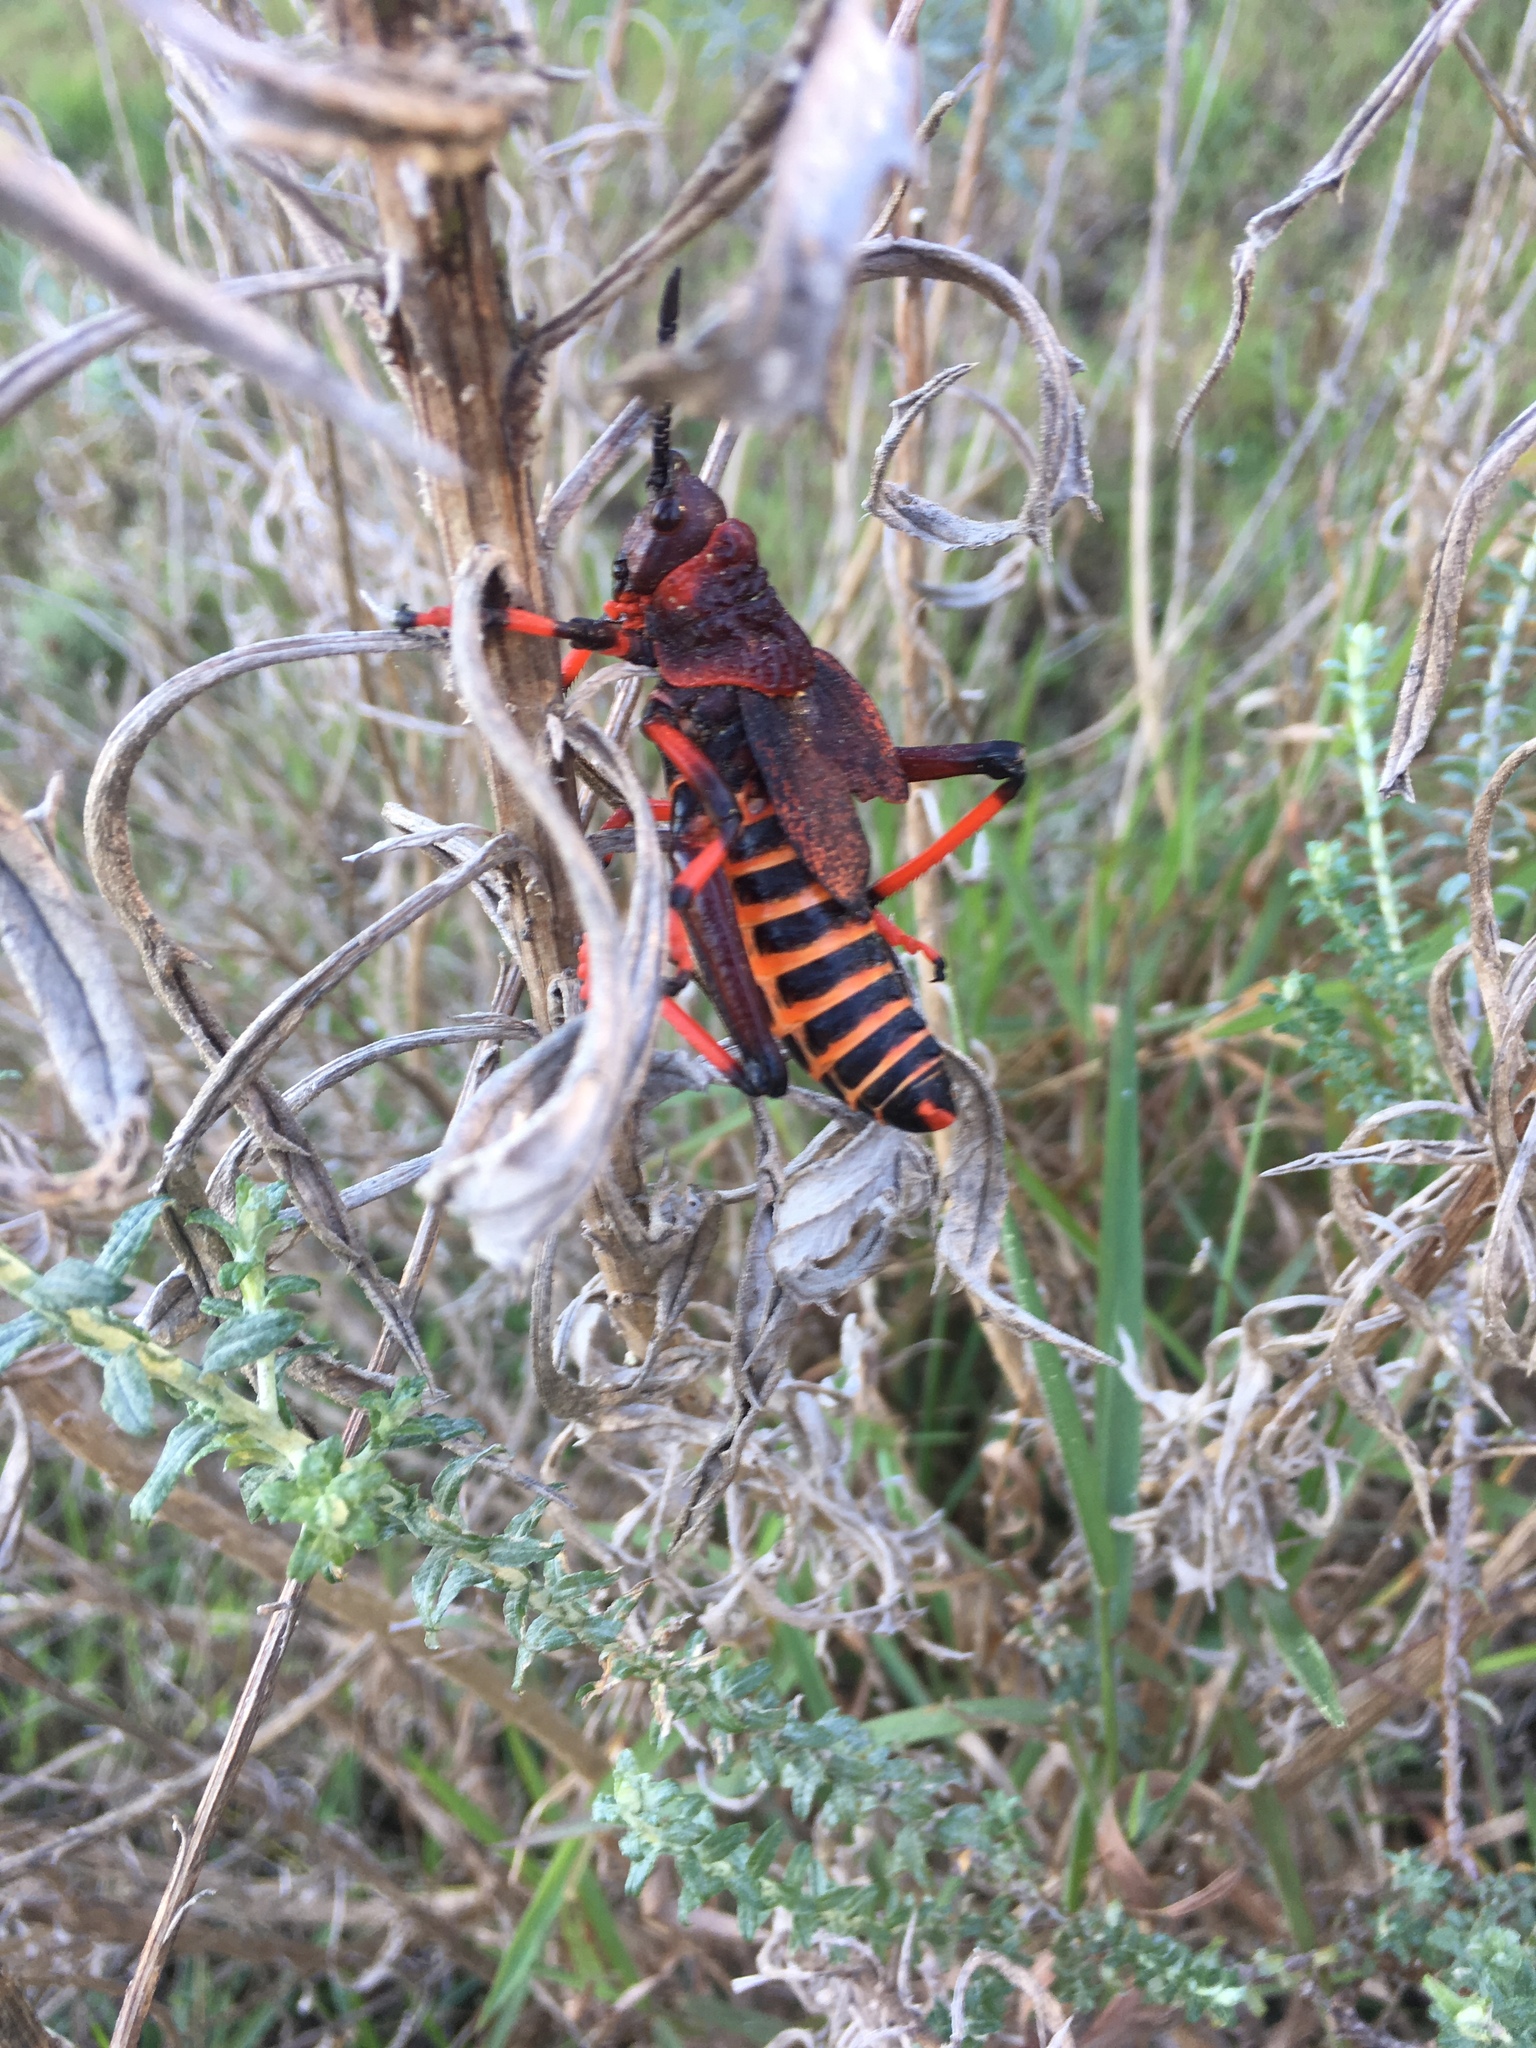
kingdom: Animalia
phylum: Arthropoda
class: Insecta
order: Orthoptera
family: Pyrgomorphidae
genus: Dictyophorus
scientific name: Dictyophorus spumans
